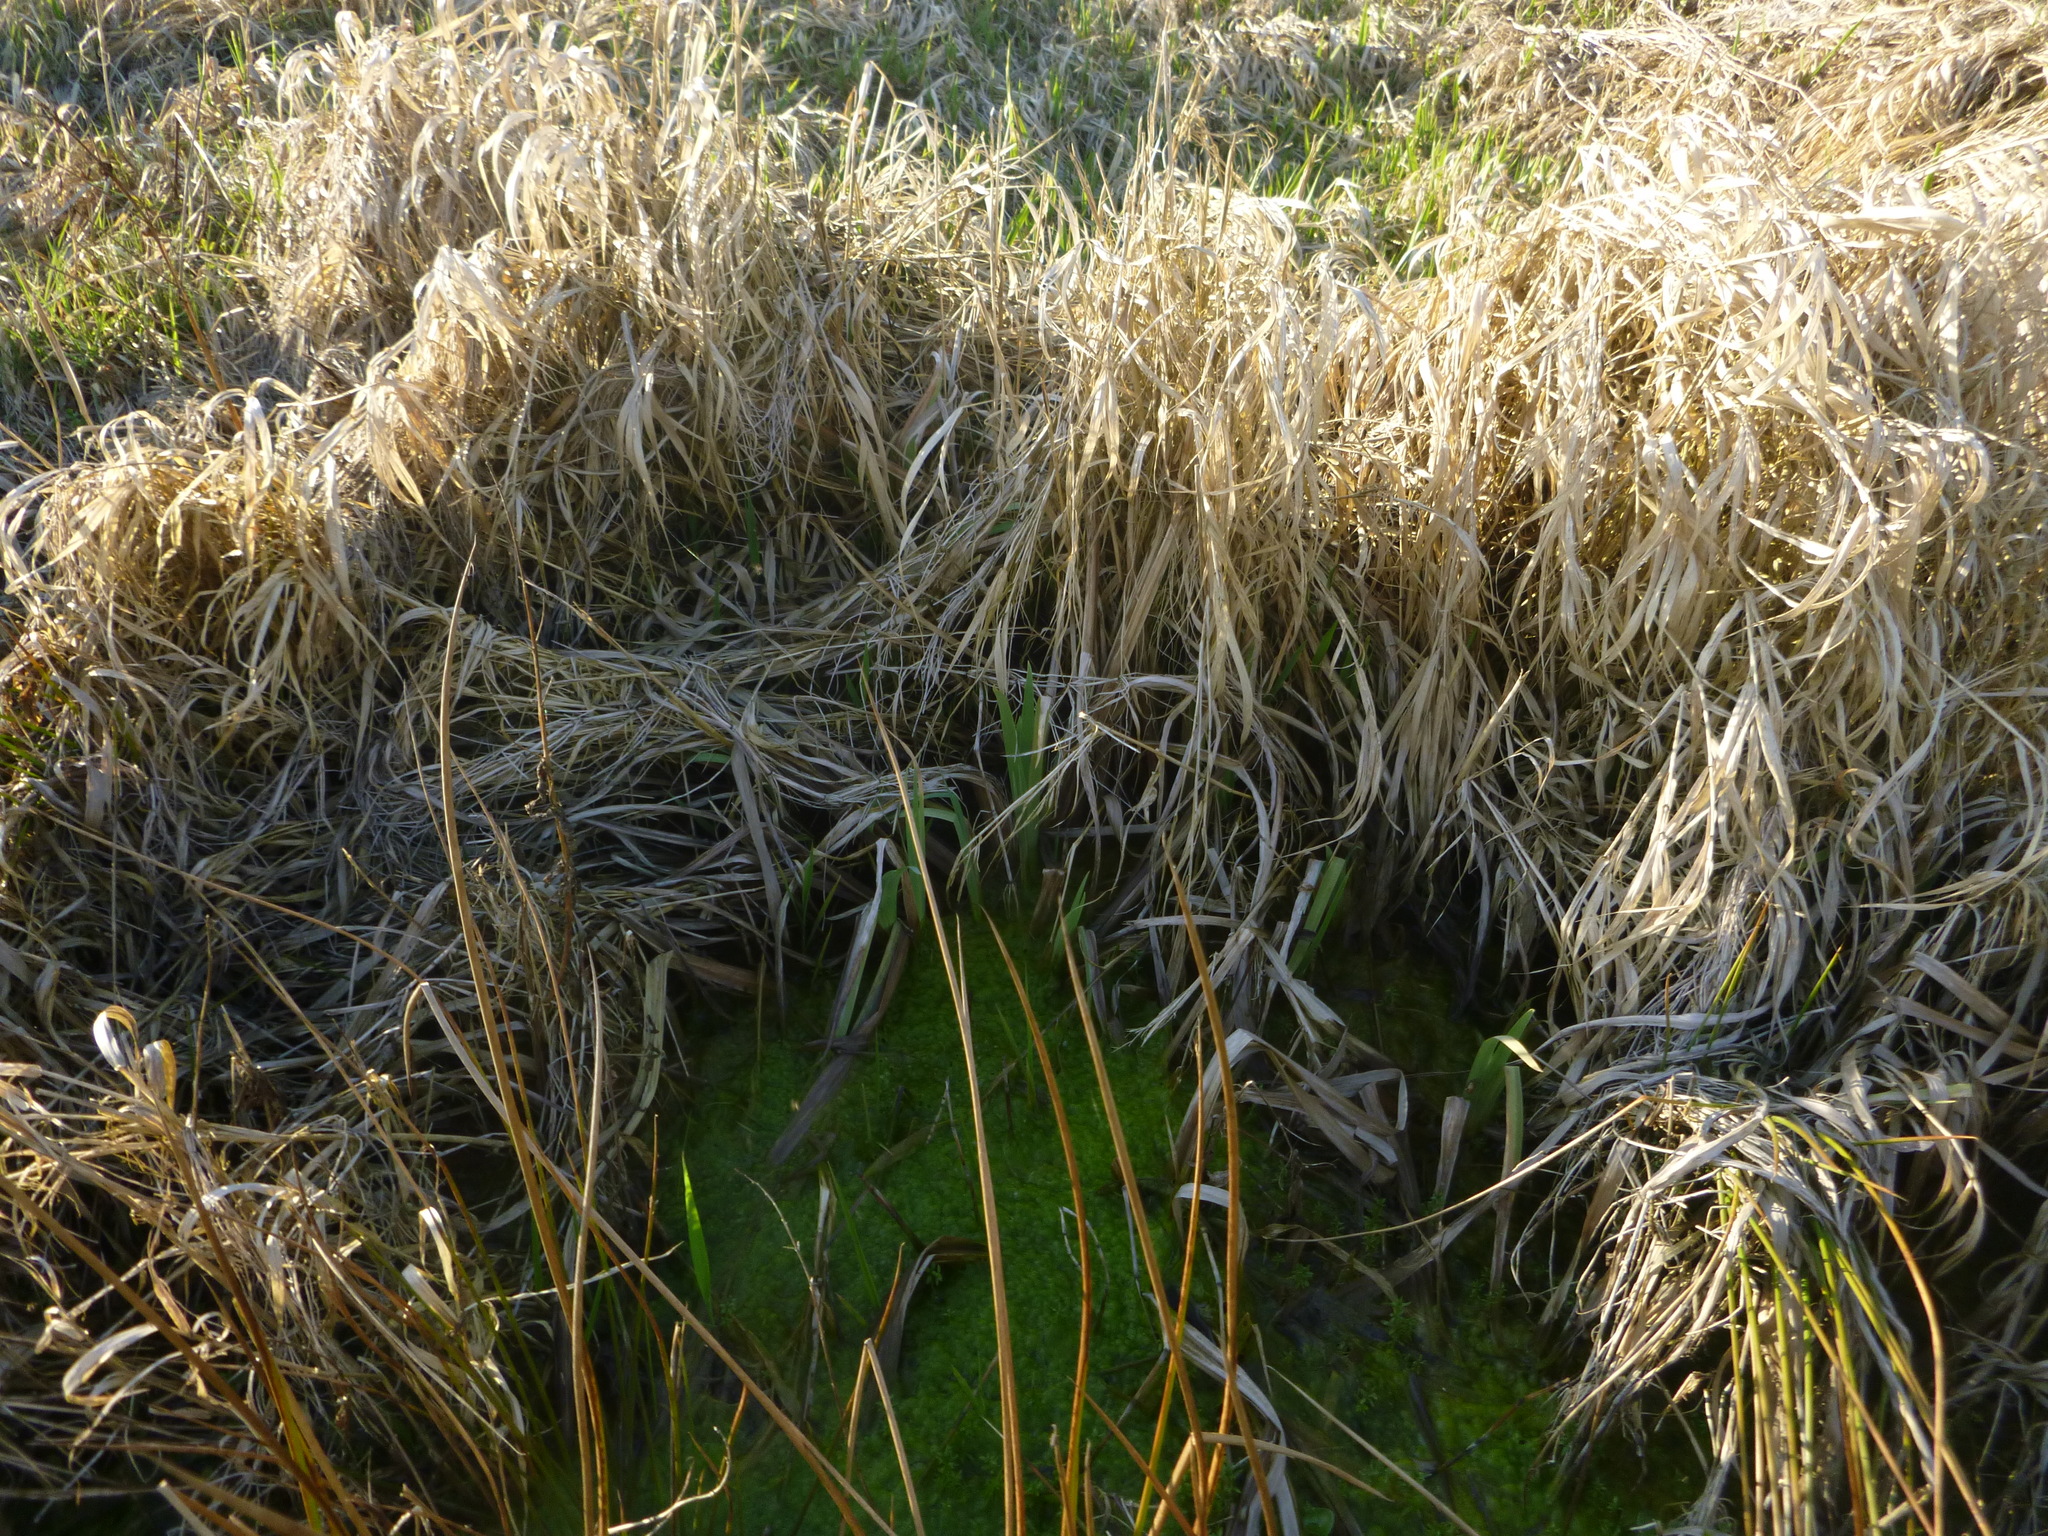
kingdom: Plantae
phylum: Tracheophyta
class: Liliopsida
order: Asparagales
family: Iridaceae
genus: Iris
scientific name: Iris pseudacorus
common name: Yellow flag
